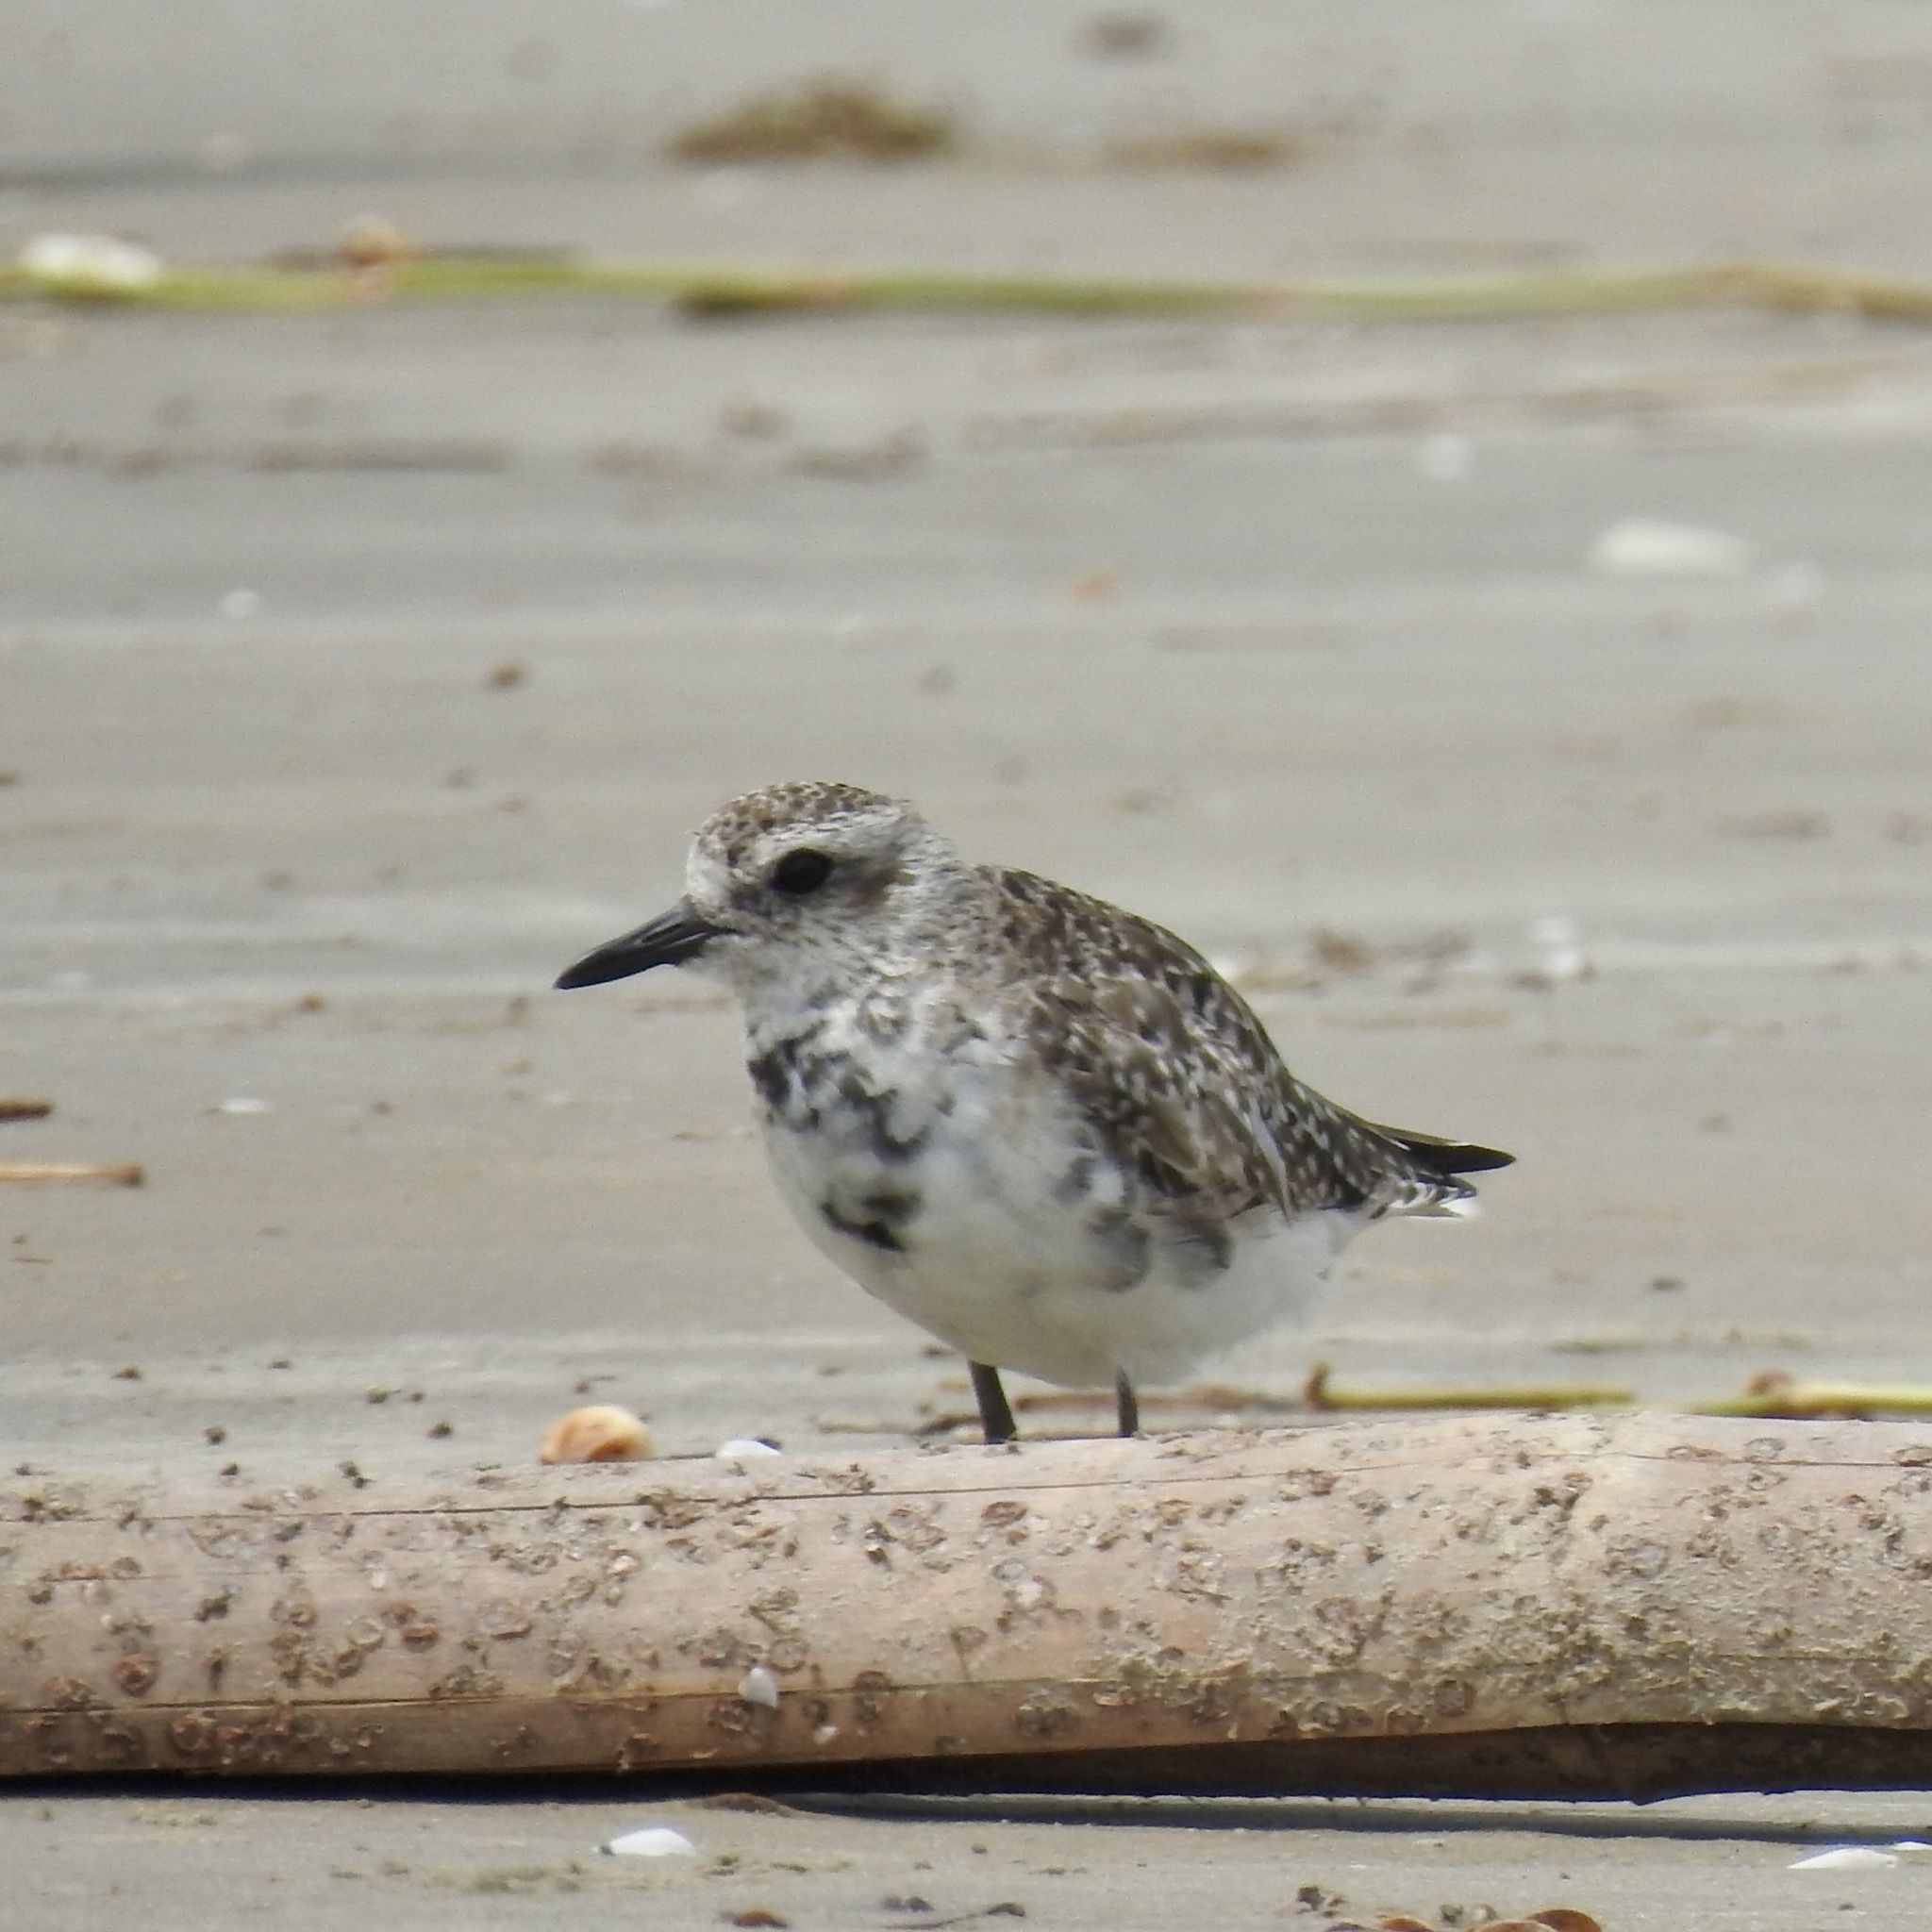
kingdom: Animalia
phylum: Chordata
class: Aves
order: Charadriiformes
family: Charadriidae
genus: Pluvialis
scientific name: Pluvialis squatarola
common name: Grey plover
